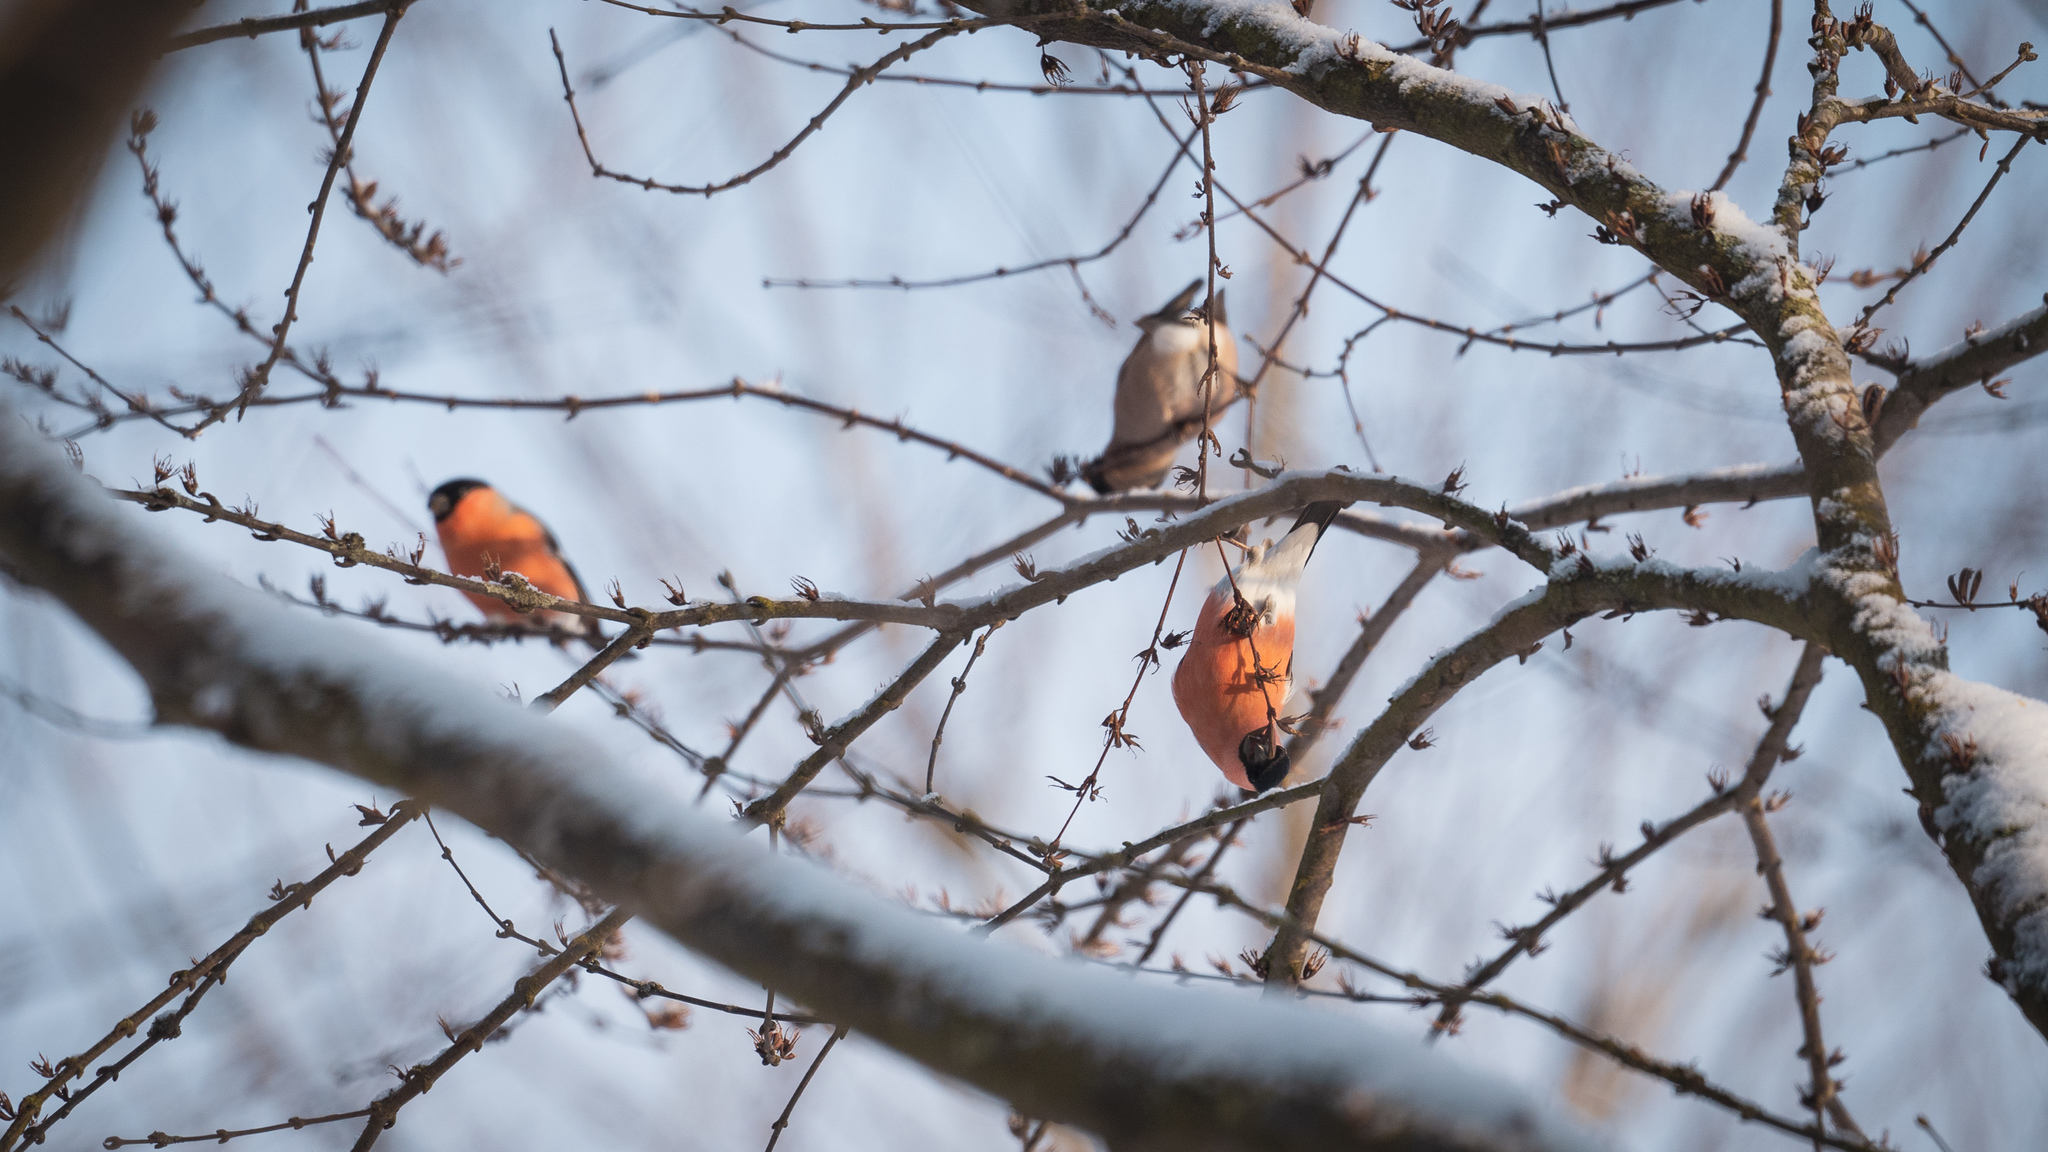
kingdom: Animalia
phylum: Chordata
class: Aves
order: Passeriformes
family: Fringillidae
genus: Pyrrhula
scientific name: Pyrrhula pyrrhula
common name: Eurasian bullfinch
